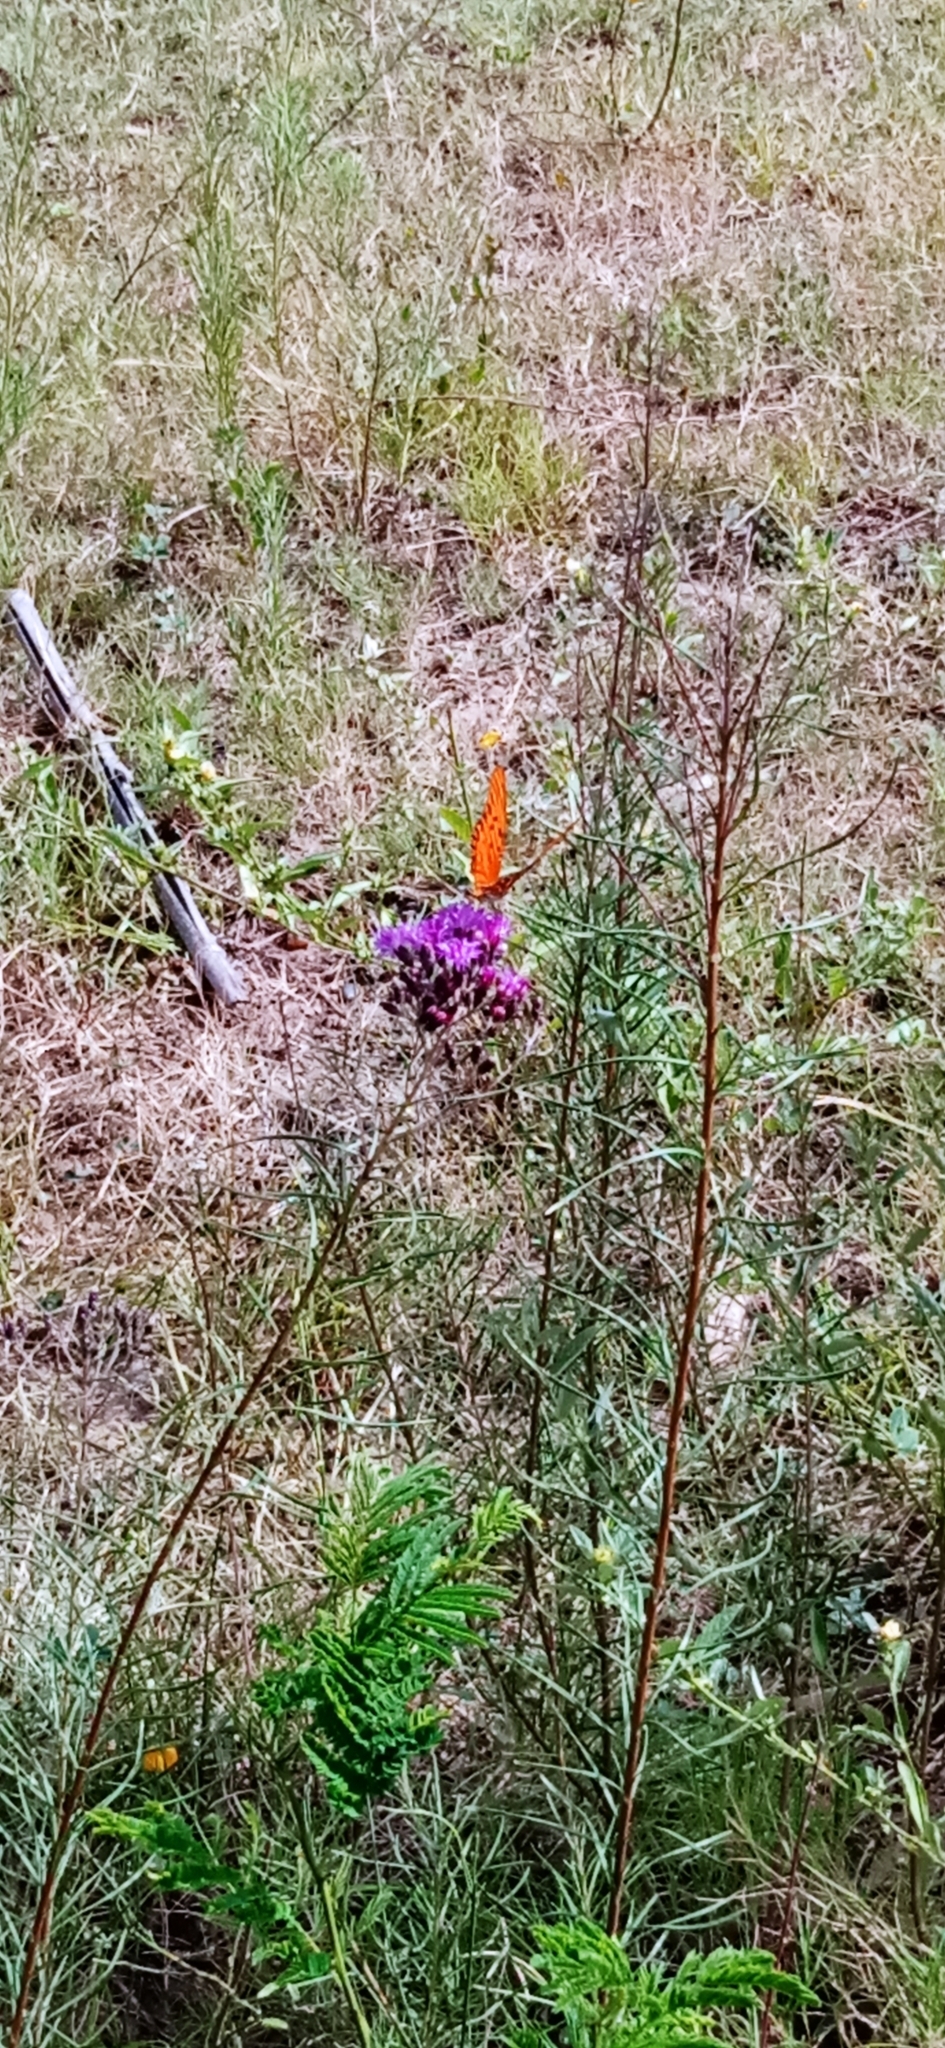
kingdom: Animalia
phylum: Arthropoda
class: Insecta
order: Lepidoptera
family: Nymphalidae
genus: Dione
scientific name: Dione vanillae
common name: Gulf fritillary
